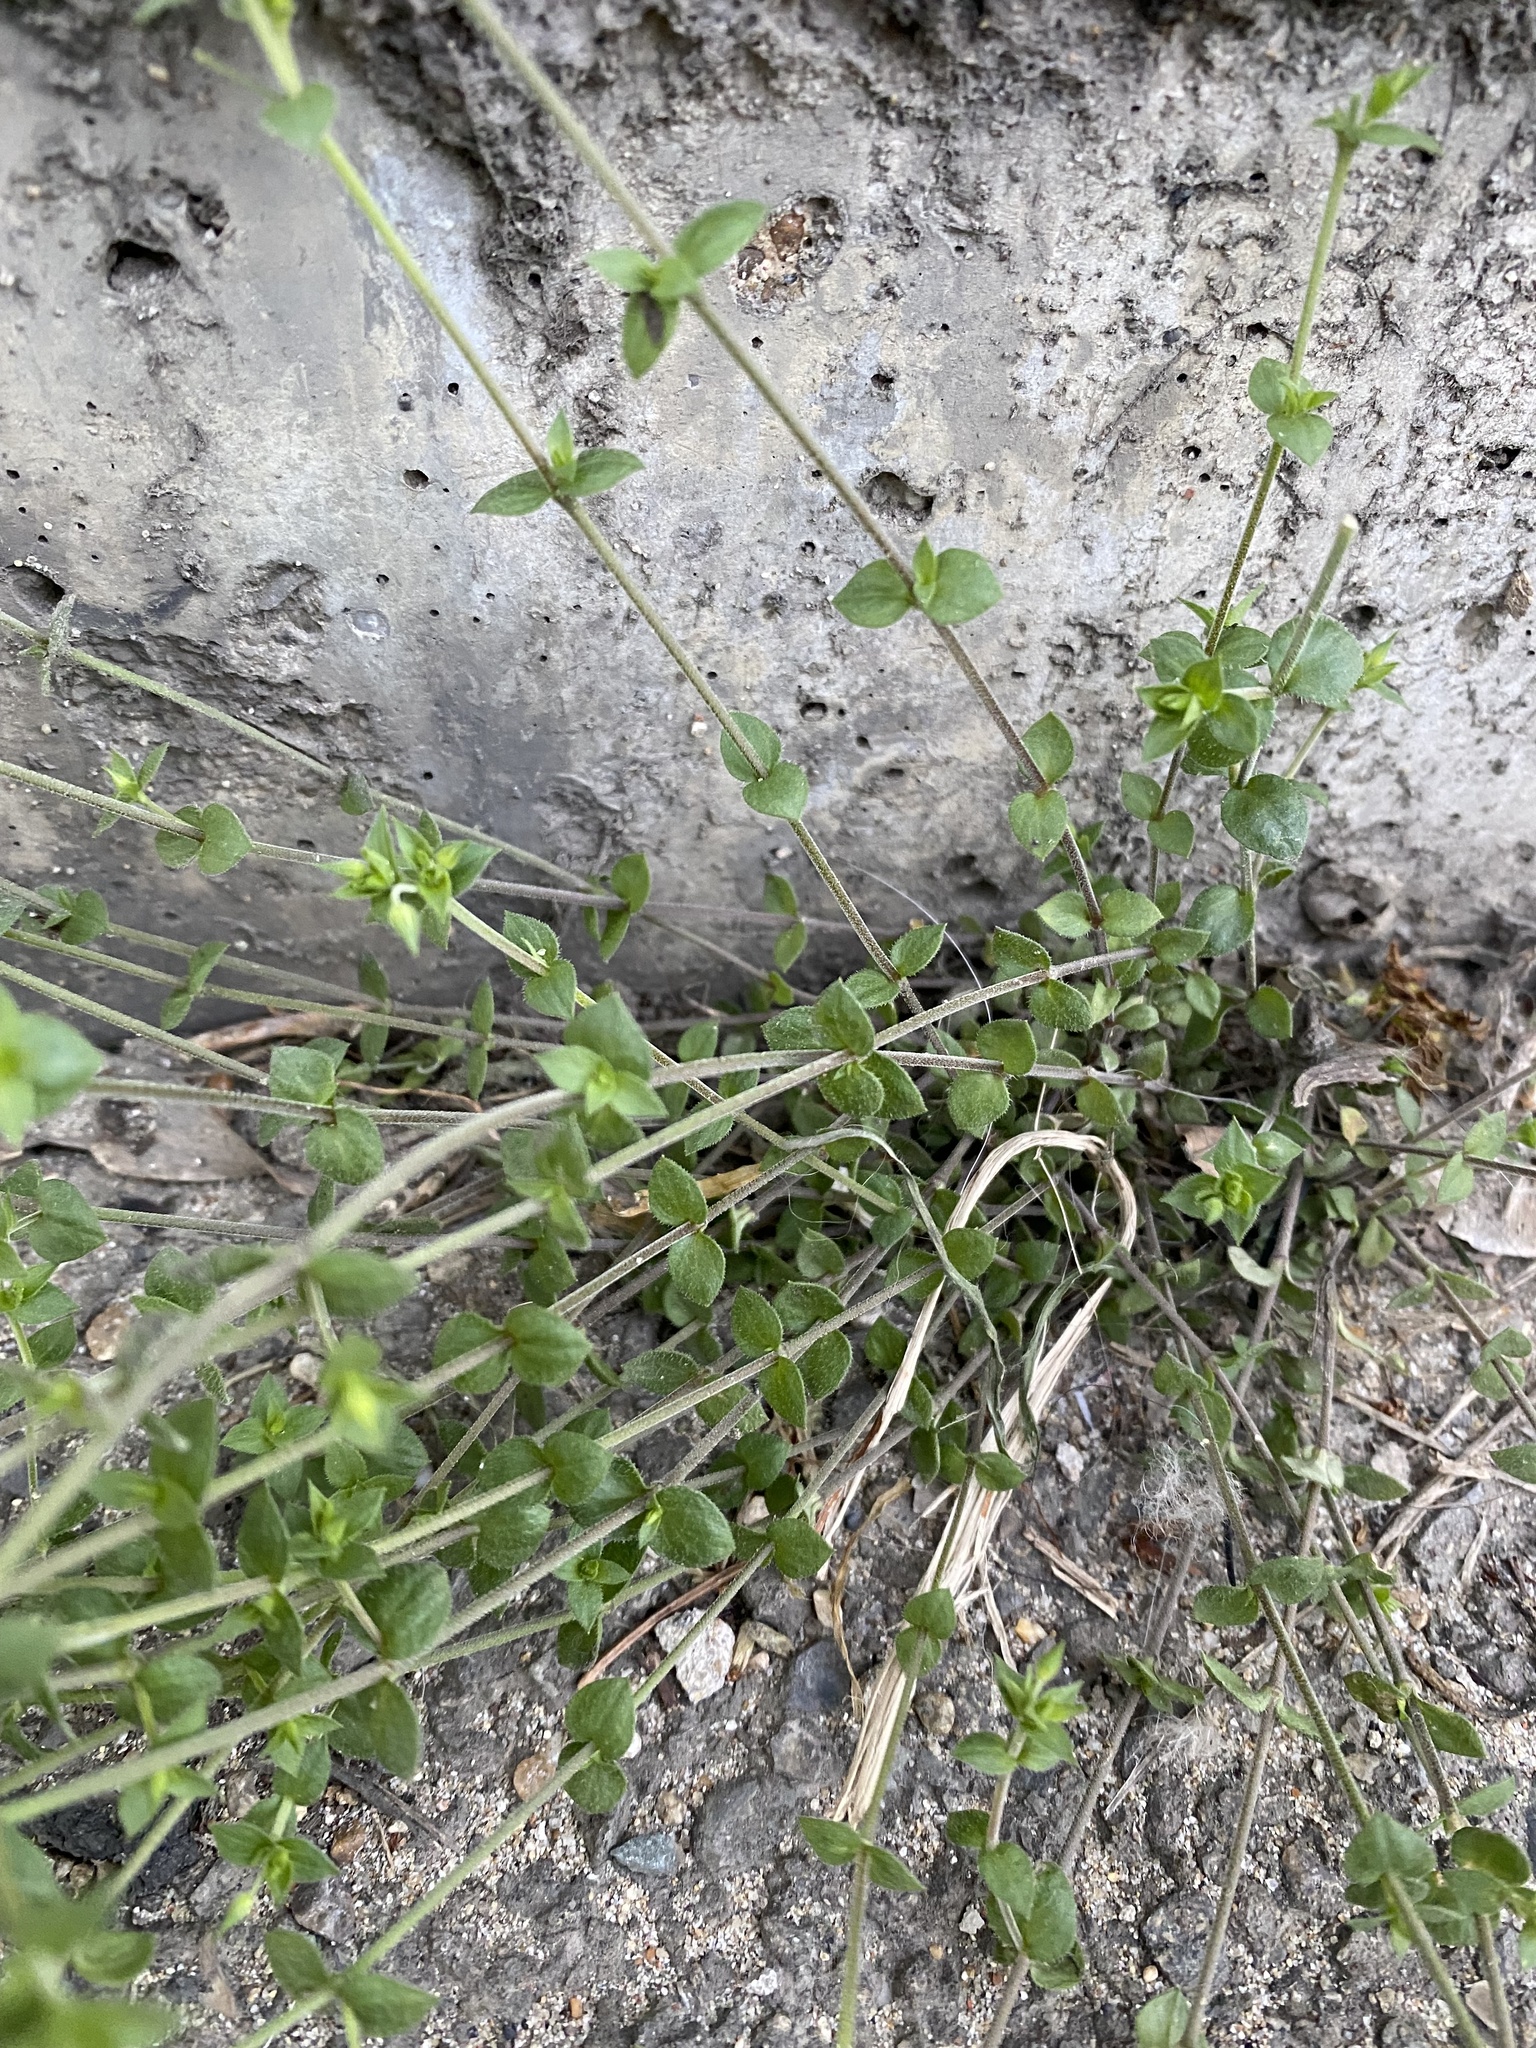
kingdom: Plantae
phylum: Tracheophyta
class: Magnoliopsida
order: Caryophyllales
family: Caryophyllaceae
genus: Arenaria
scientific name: Arenaria serpyllifolia
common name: Thyme-leaved sandwort
